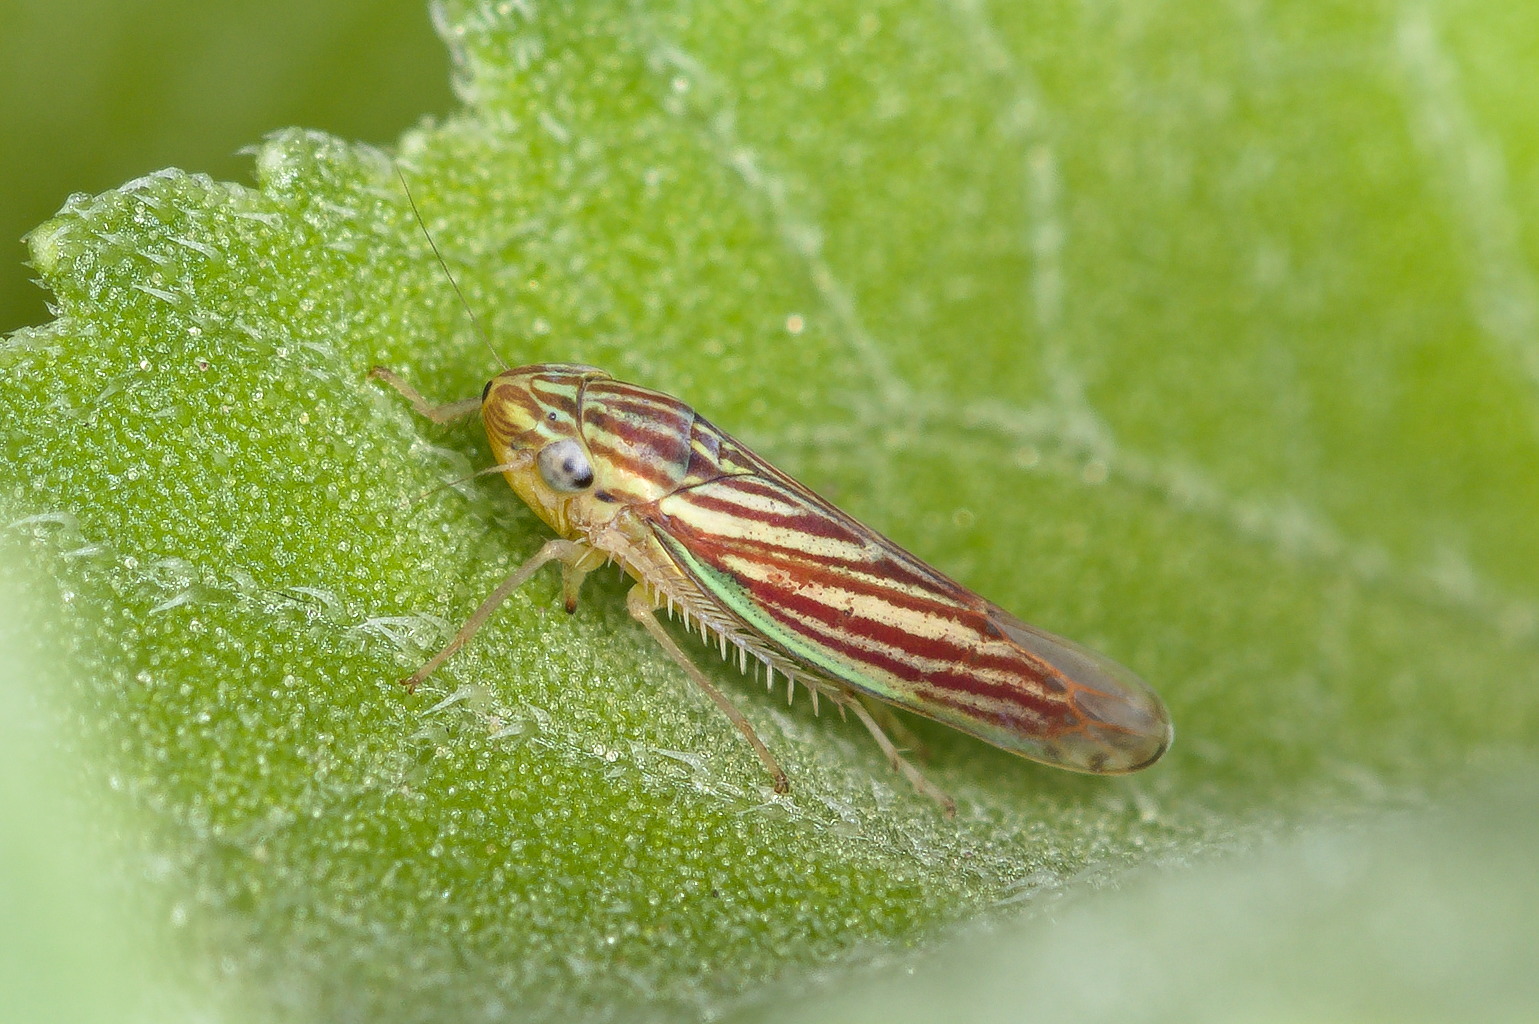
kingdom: Animalia
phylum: Arthropoda
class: Insecta
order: Hemiptera
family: Cicadellidae
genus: Sibovia
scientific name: Sibovia compta
